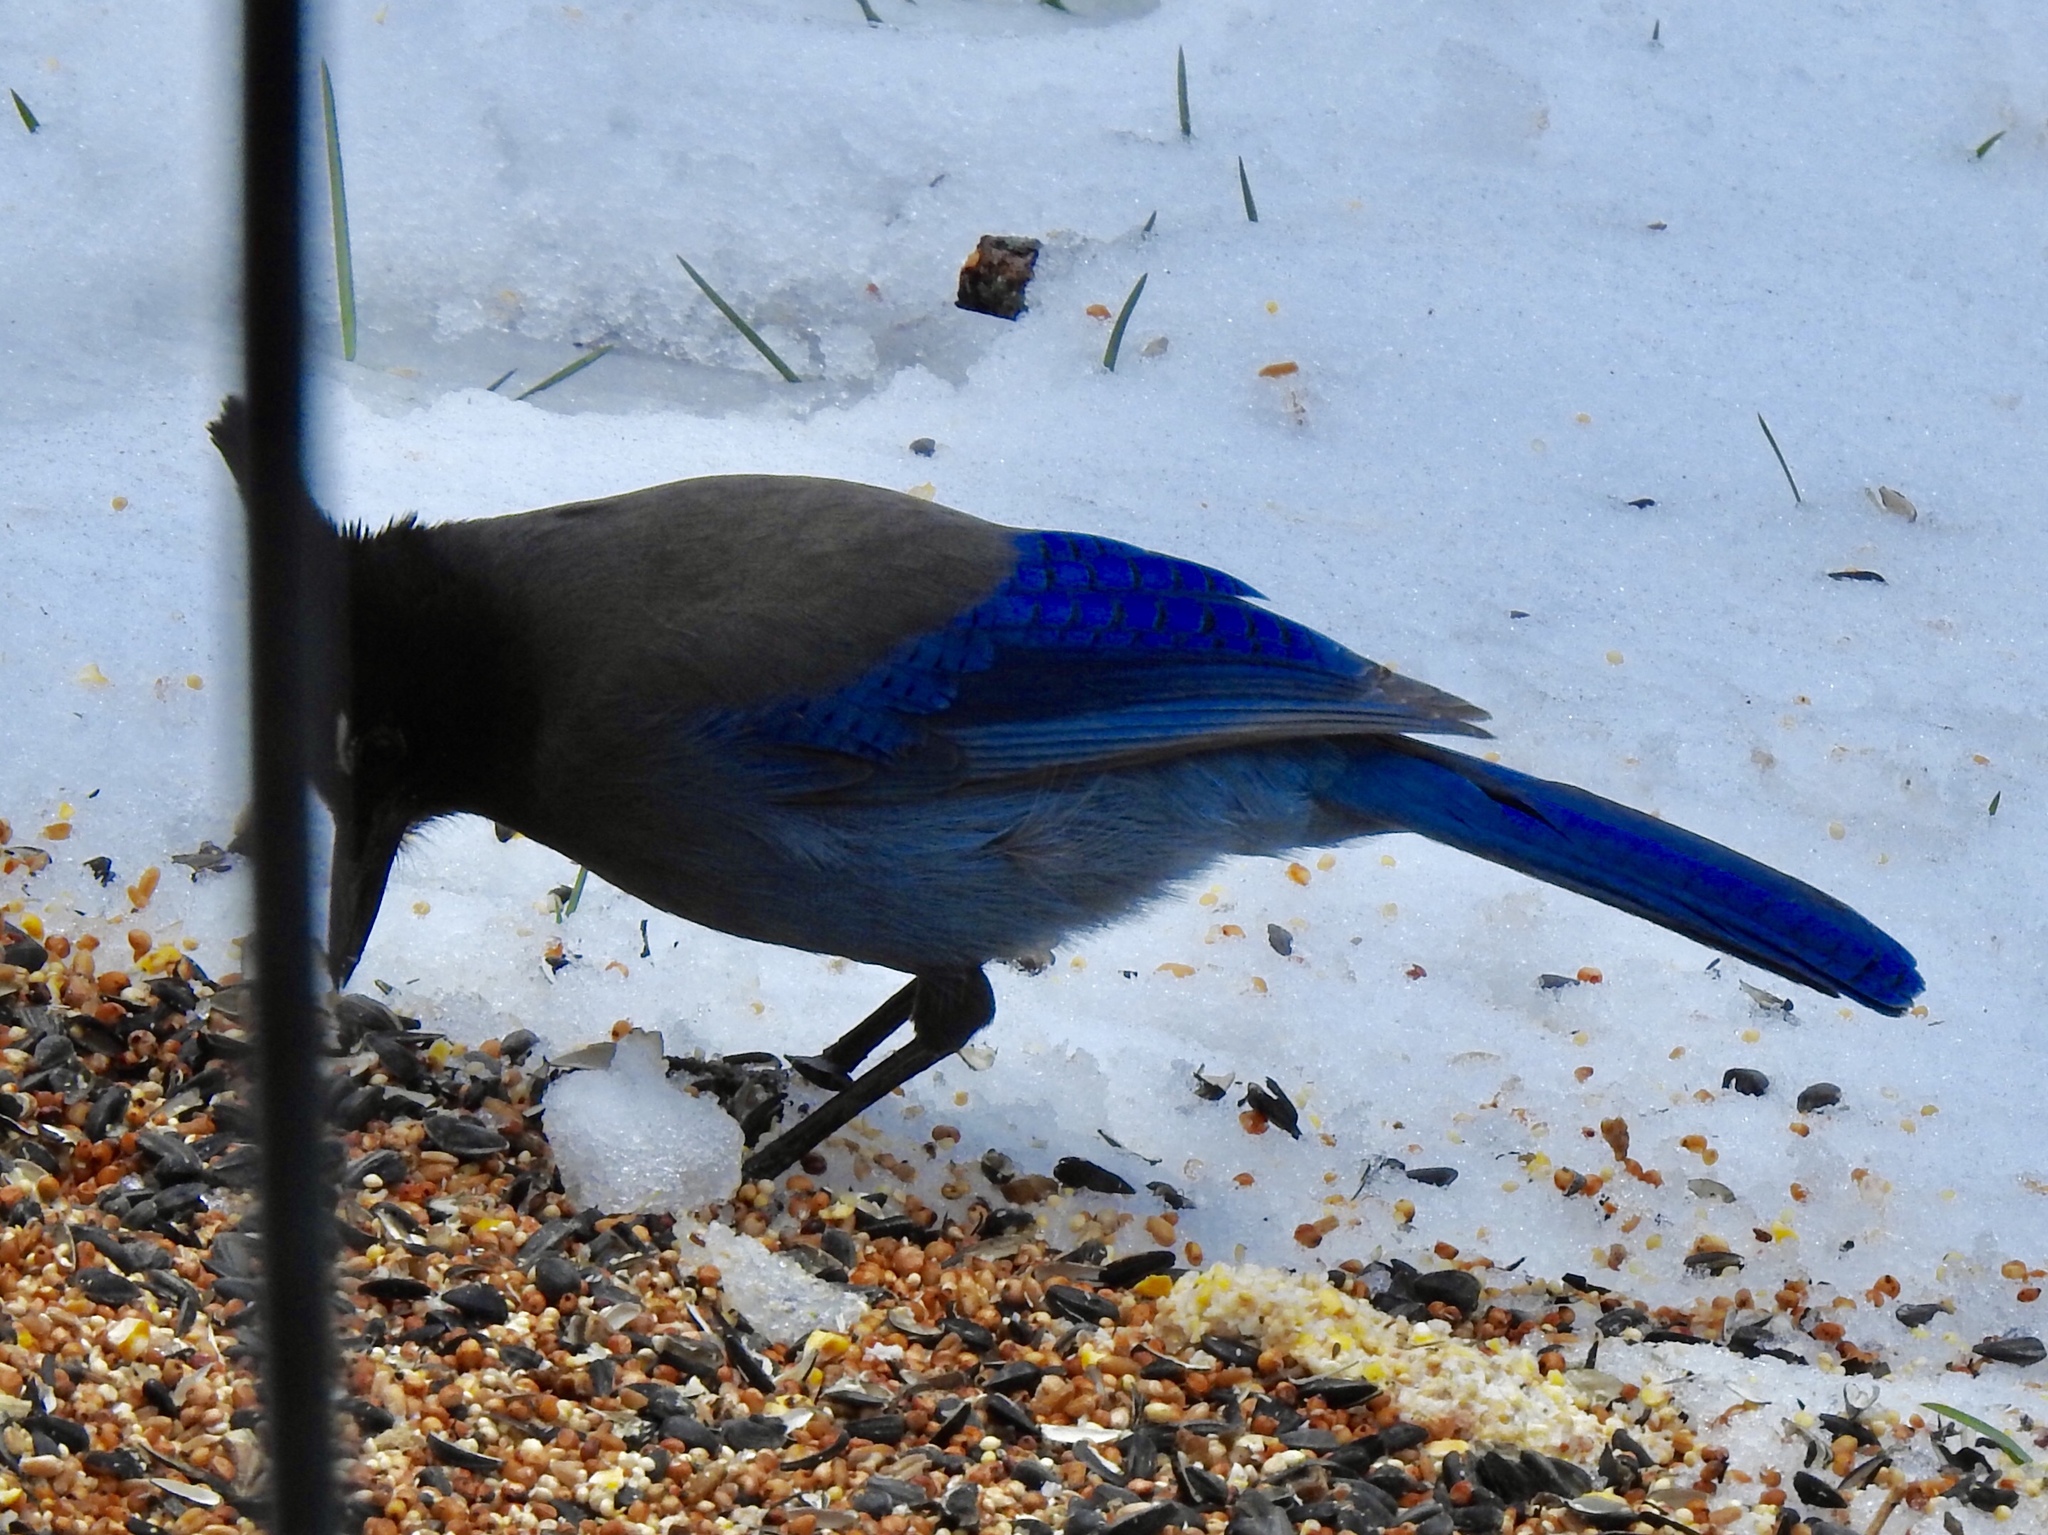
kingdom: Animalia
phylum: Chordata
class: Aves
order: Passeriformes
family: Corvidae
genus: Cyanocitta
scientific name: Cyanocitta stelleri
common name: Steller's jay
